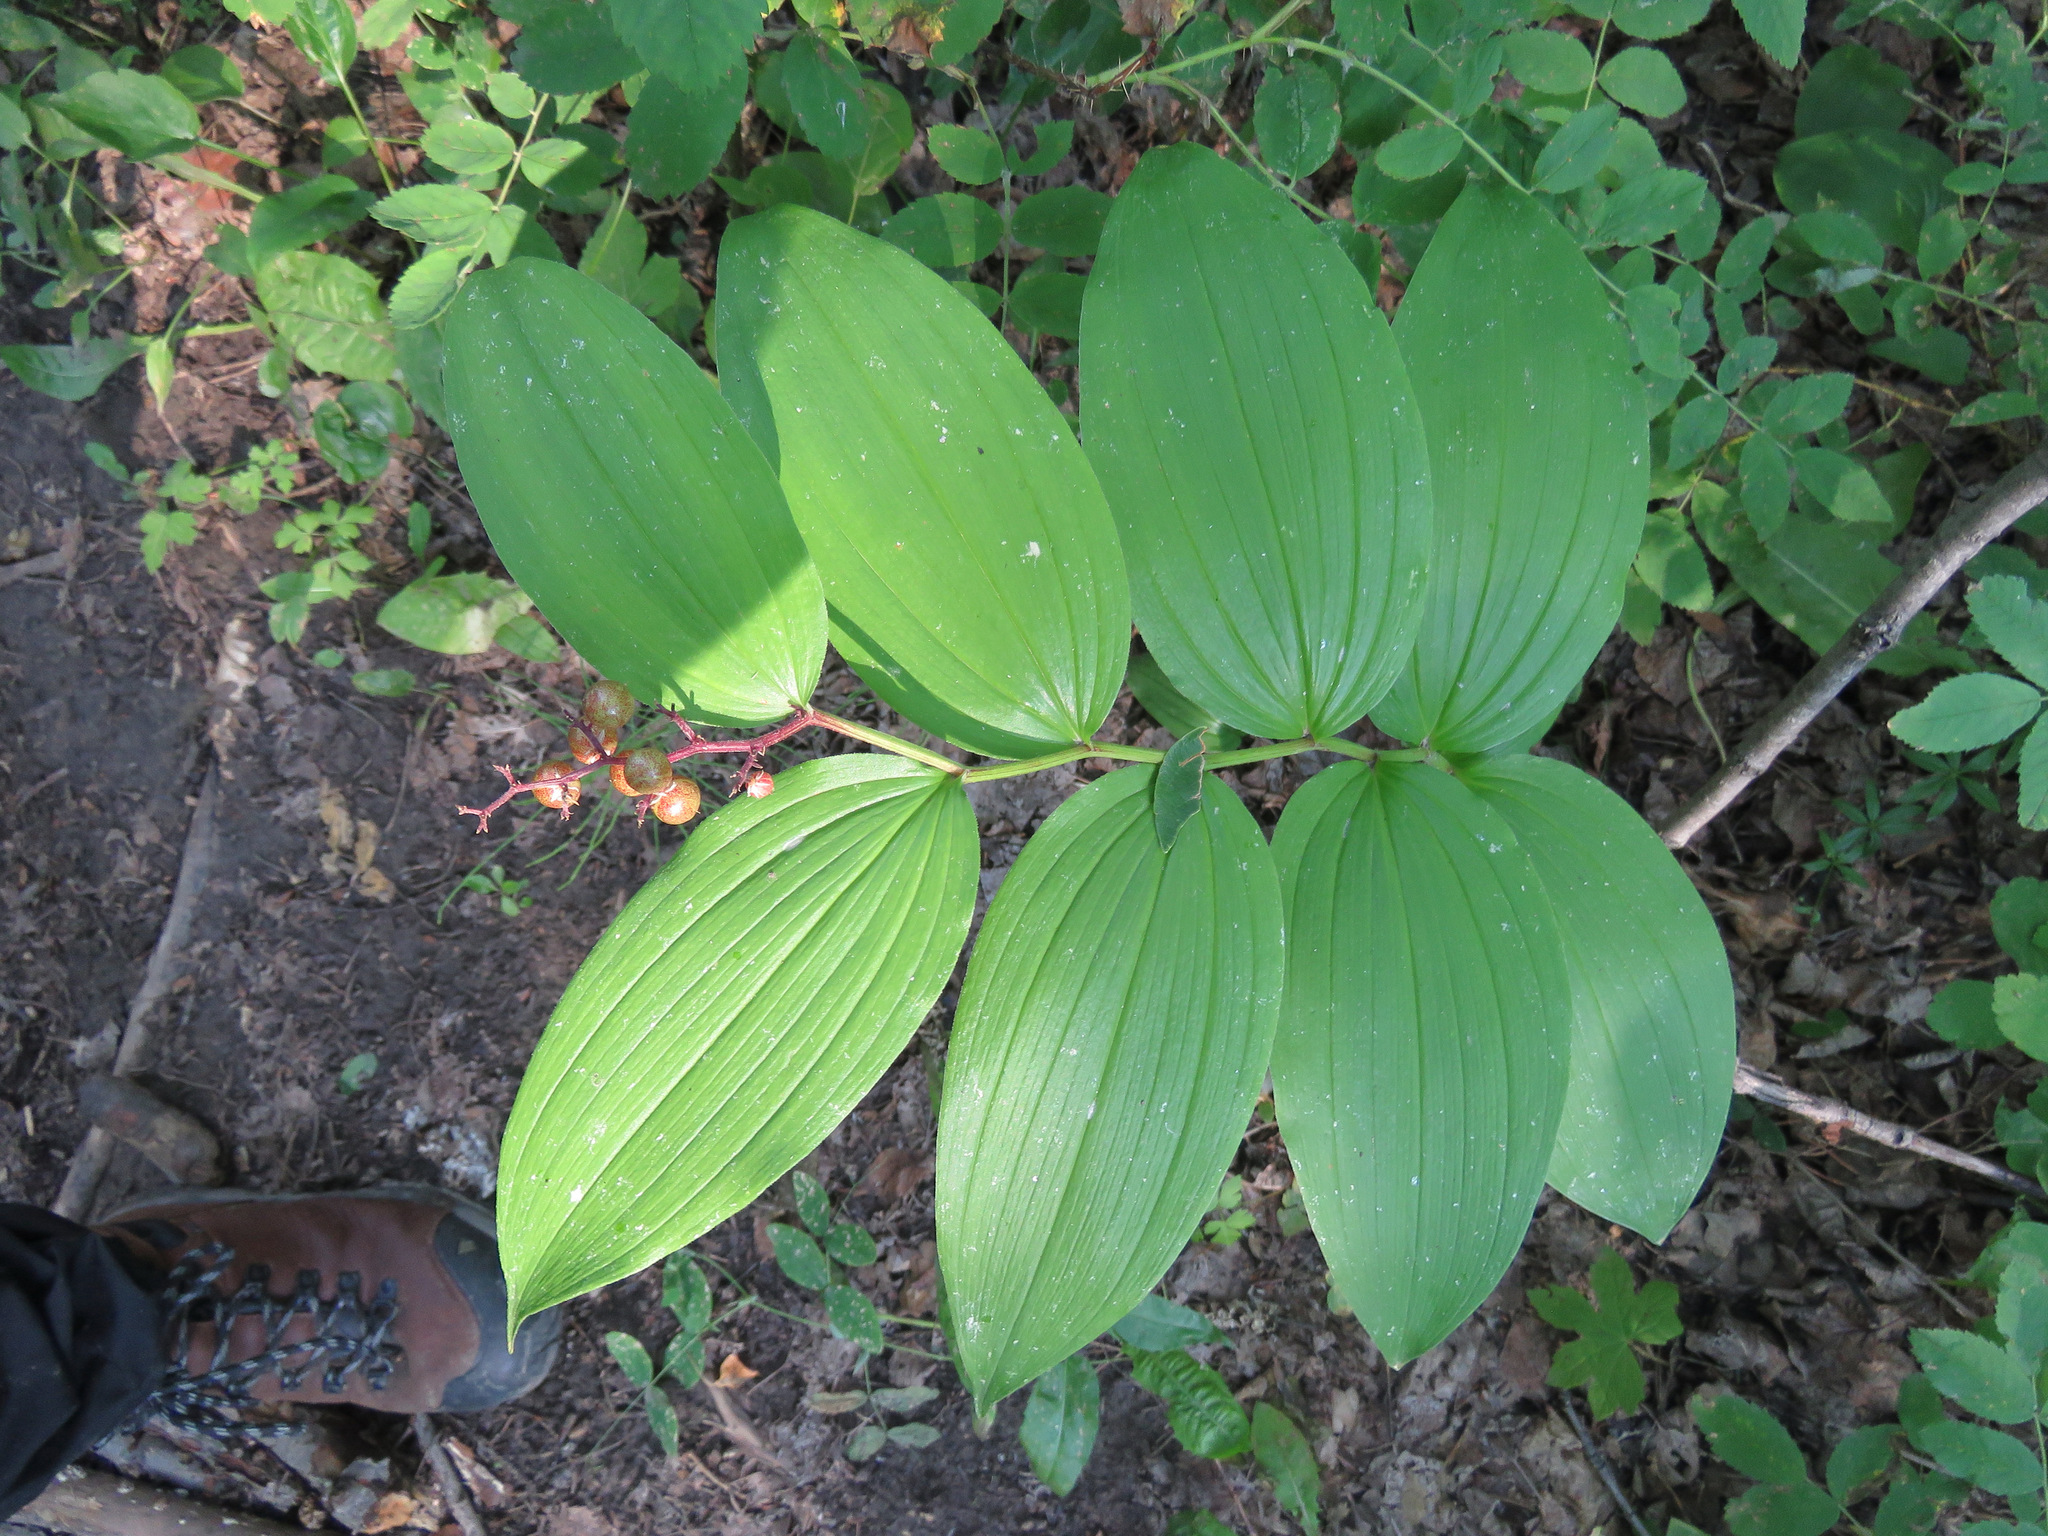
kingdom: Plantae
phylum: Tracheophyta
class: Liliopsida
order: Asparagales
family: Asparagaceae
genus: Maianthemum
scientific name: Maianthemum racemosum
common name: False spikenard
